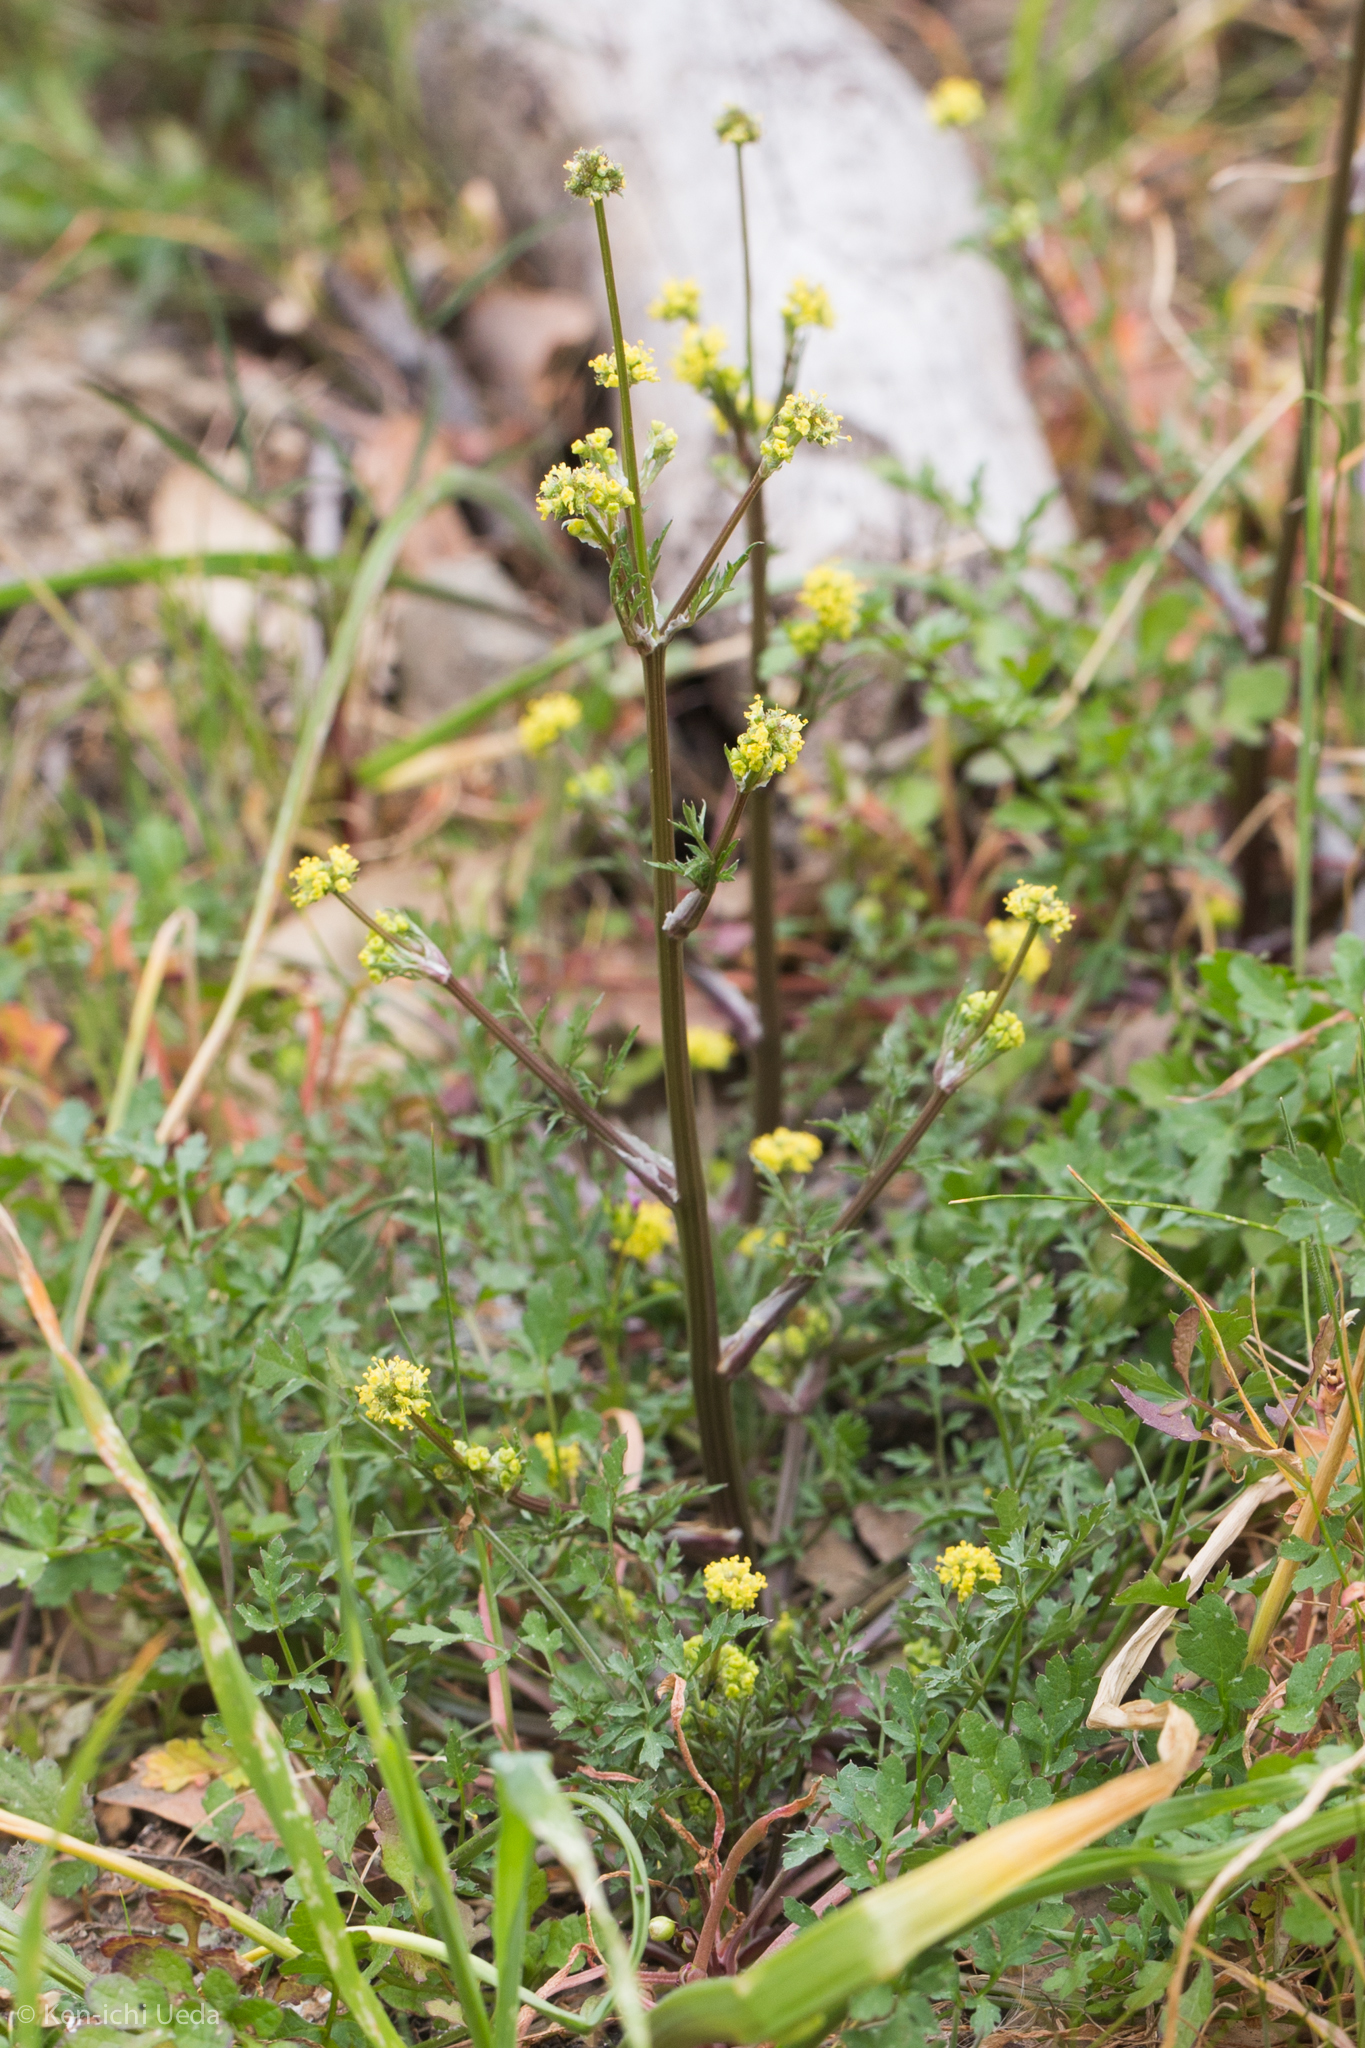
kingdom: Plantae
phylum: Tracheophyta
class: Magnoliopsida
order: Apiales
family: Apiaceae
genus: Sanicula
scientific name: Sanicula bipinnata
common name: Poison sanicle
